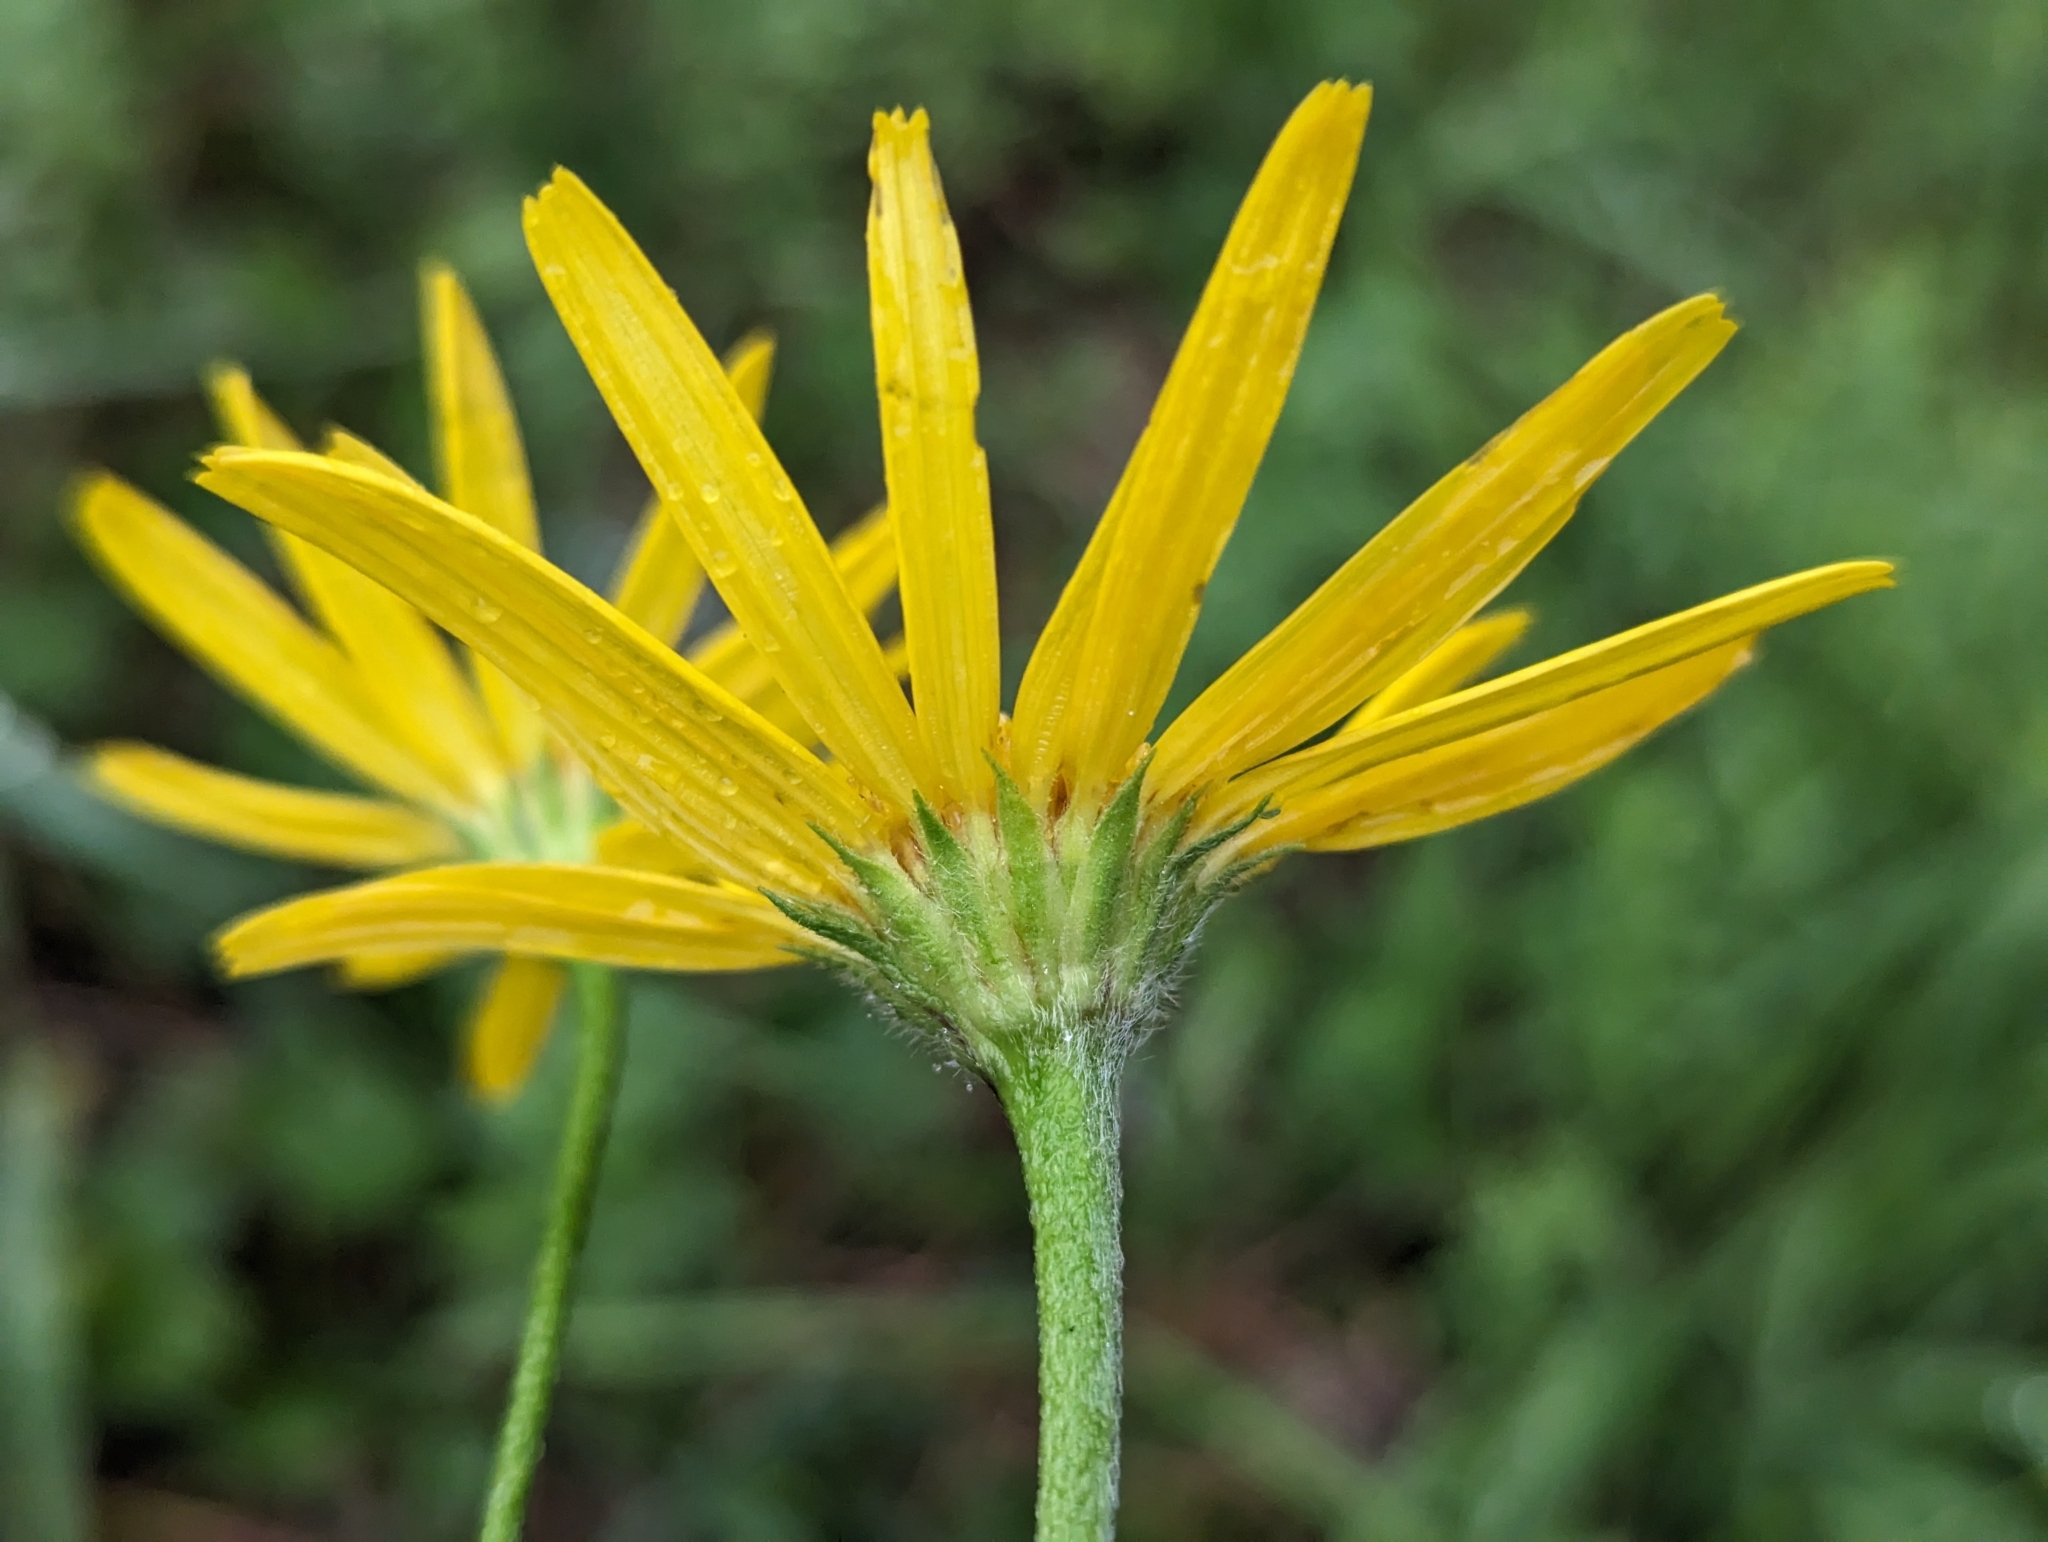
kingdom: Plantae
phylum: Tracheophyta
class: Magnoliopsida
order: Asterales
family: Asteraceae
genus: Buphthalmum
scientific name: Buphthalmum salicifolium
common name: Willow-leaved yellow-oxeye
